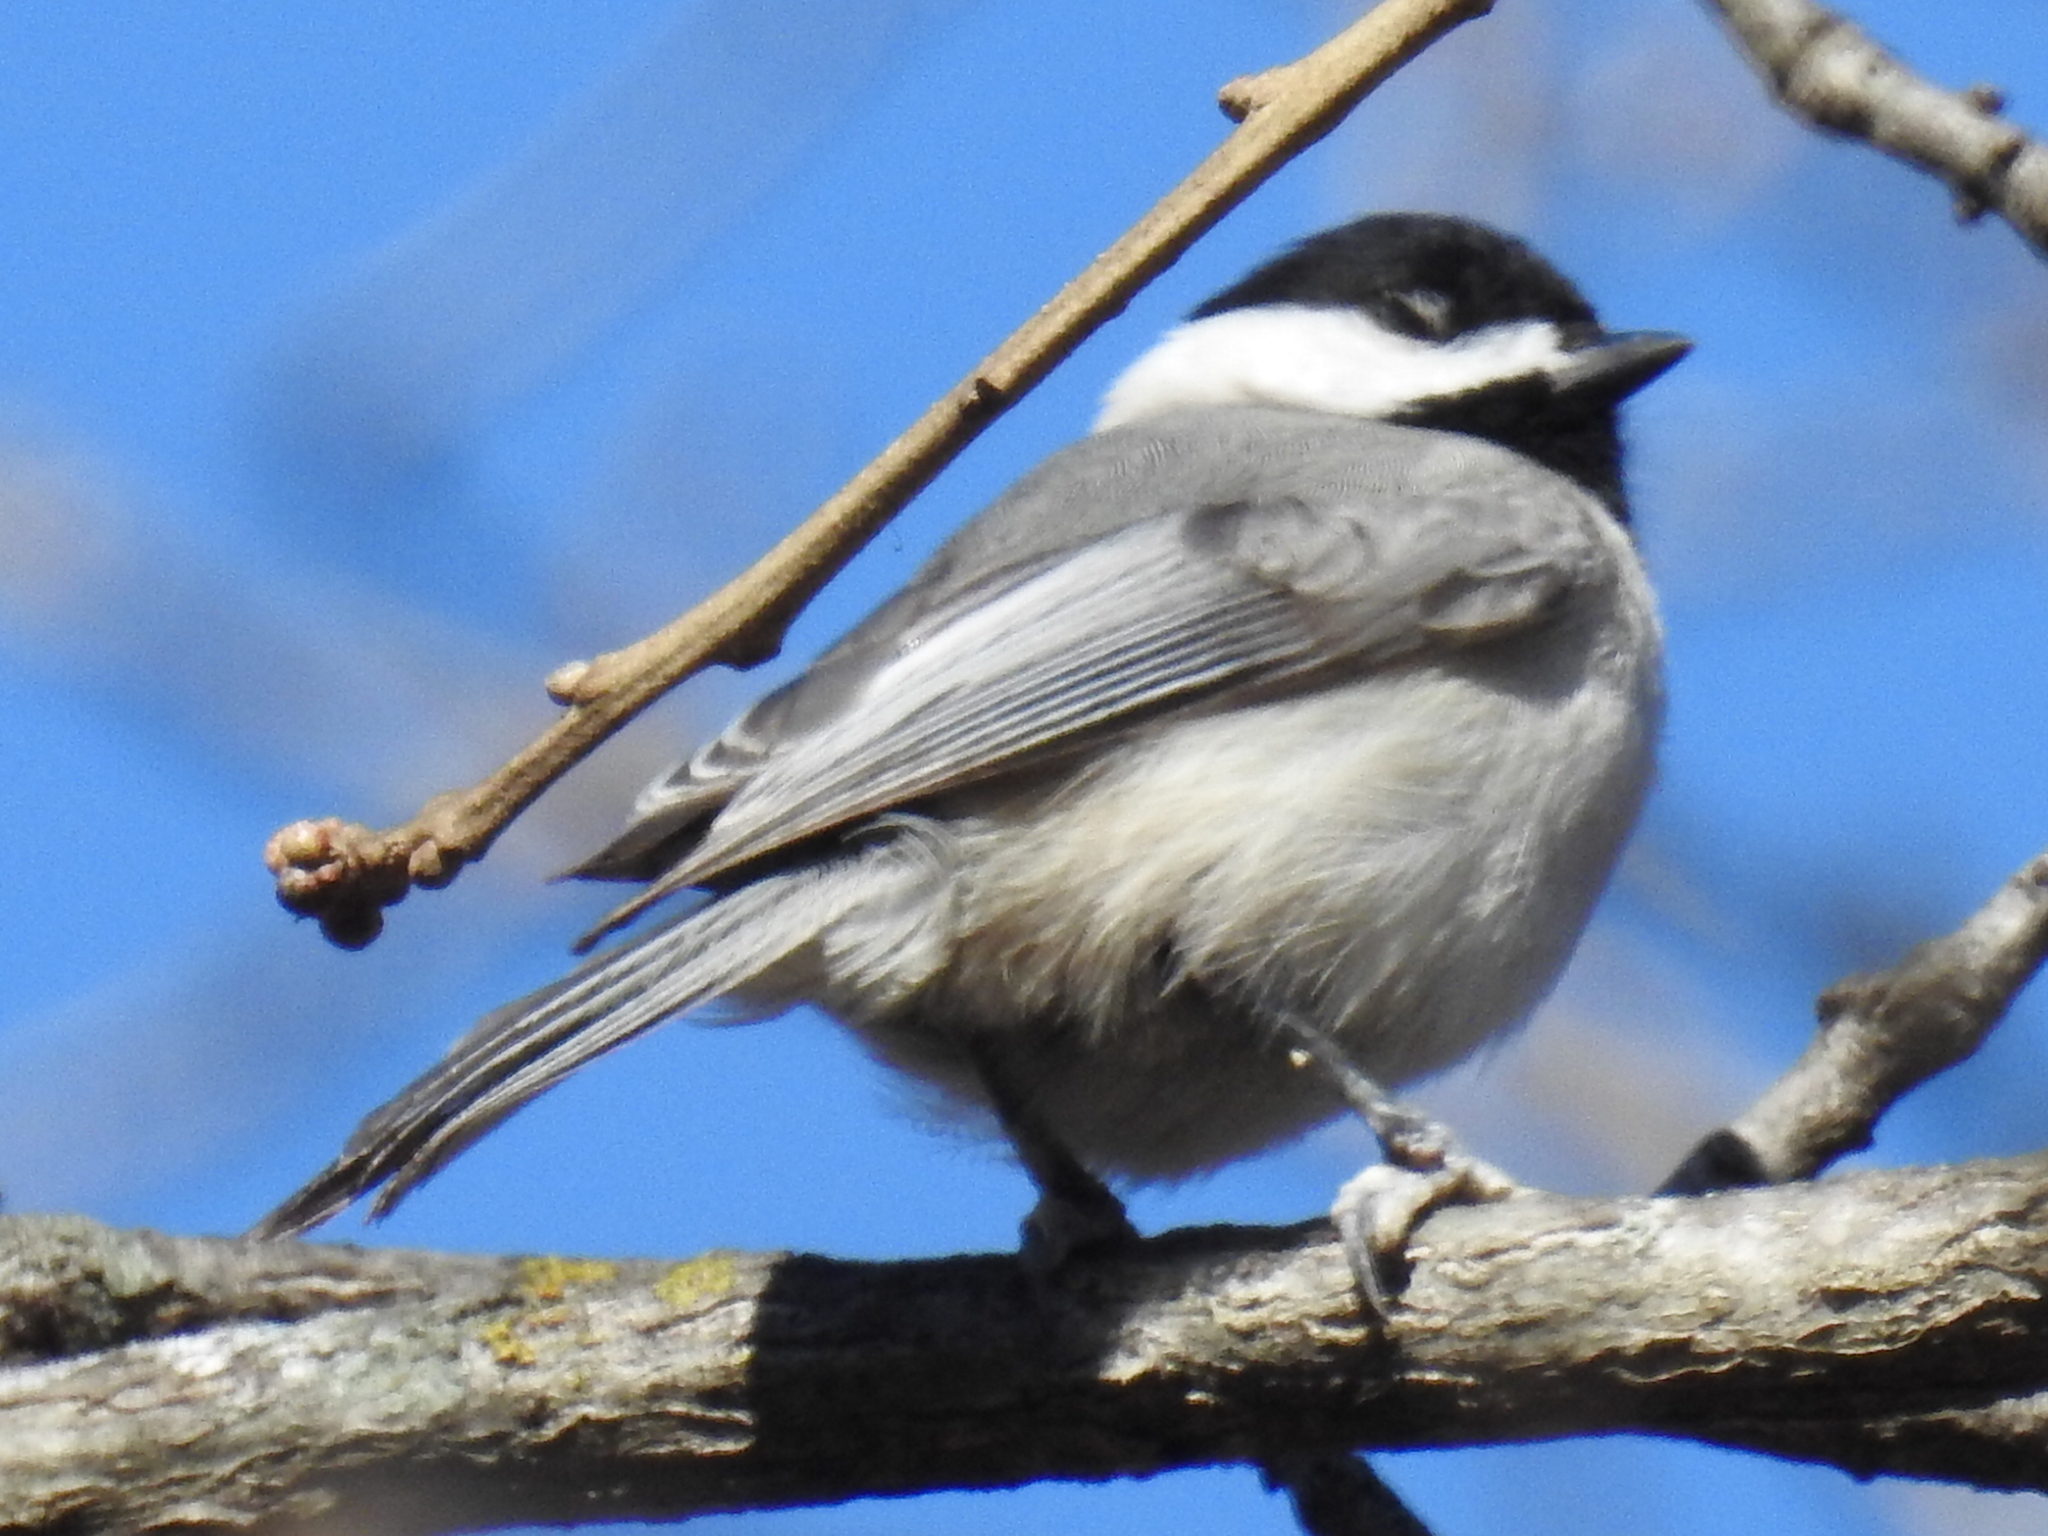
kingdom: Animalia
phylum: Chordata
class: Aves
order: Passeriformes
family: Paridae
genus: Poecile
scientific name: Poecile carolinensis
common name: Carolina chickadee
